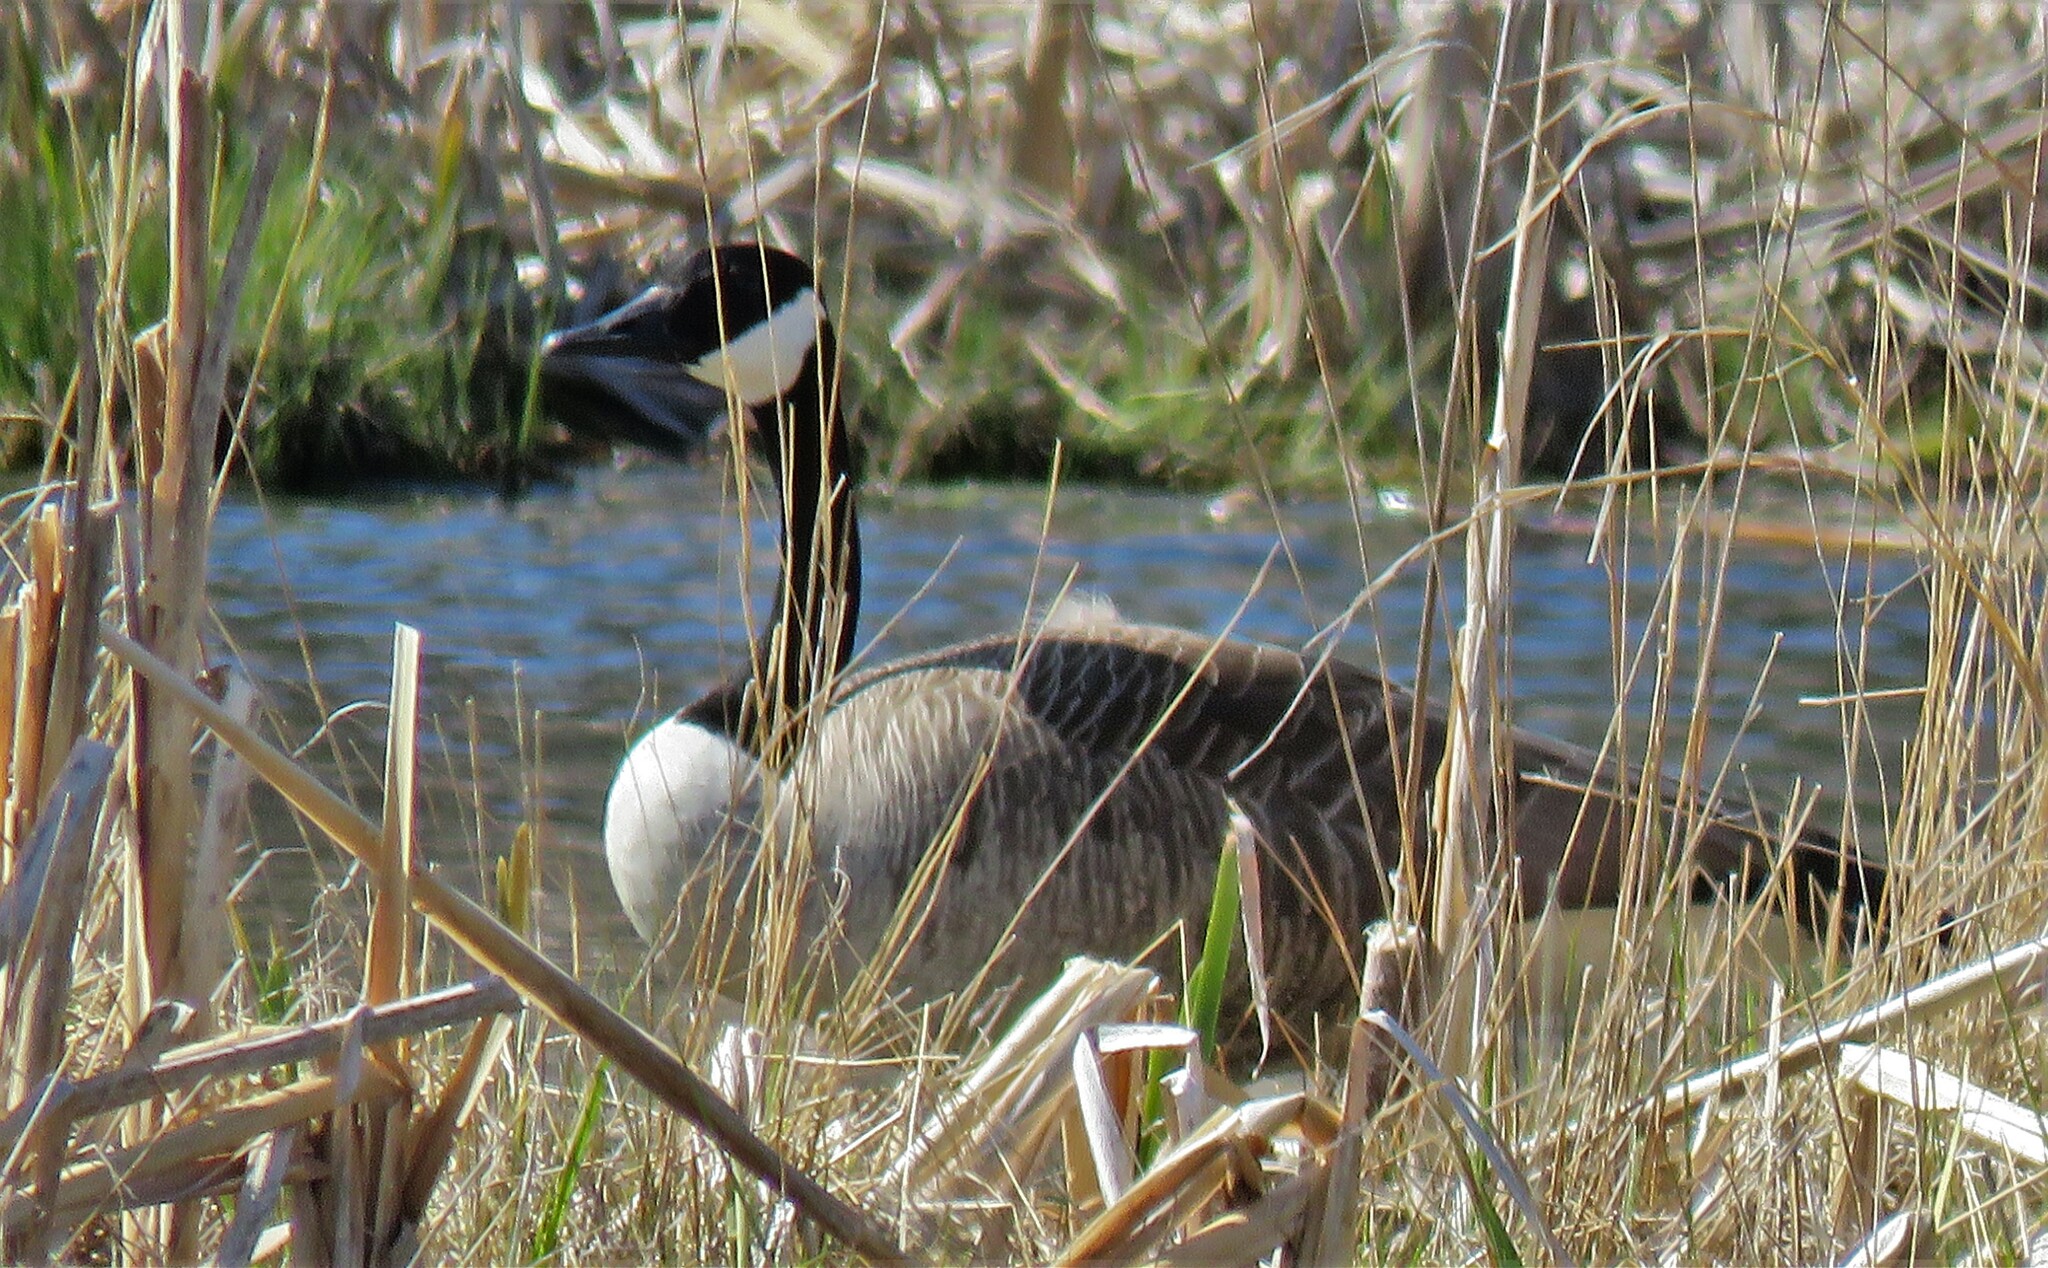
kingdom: Animalia
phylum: Chordata
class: Aves
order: Anseriformes
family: Anatidae
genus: Branta
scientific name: Branta canadensis
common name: Canada goose
